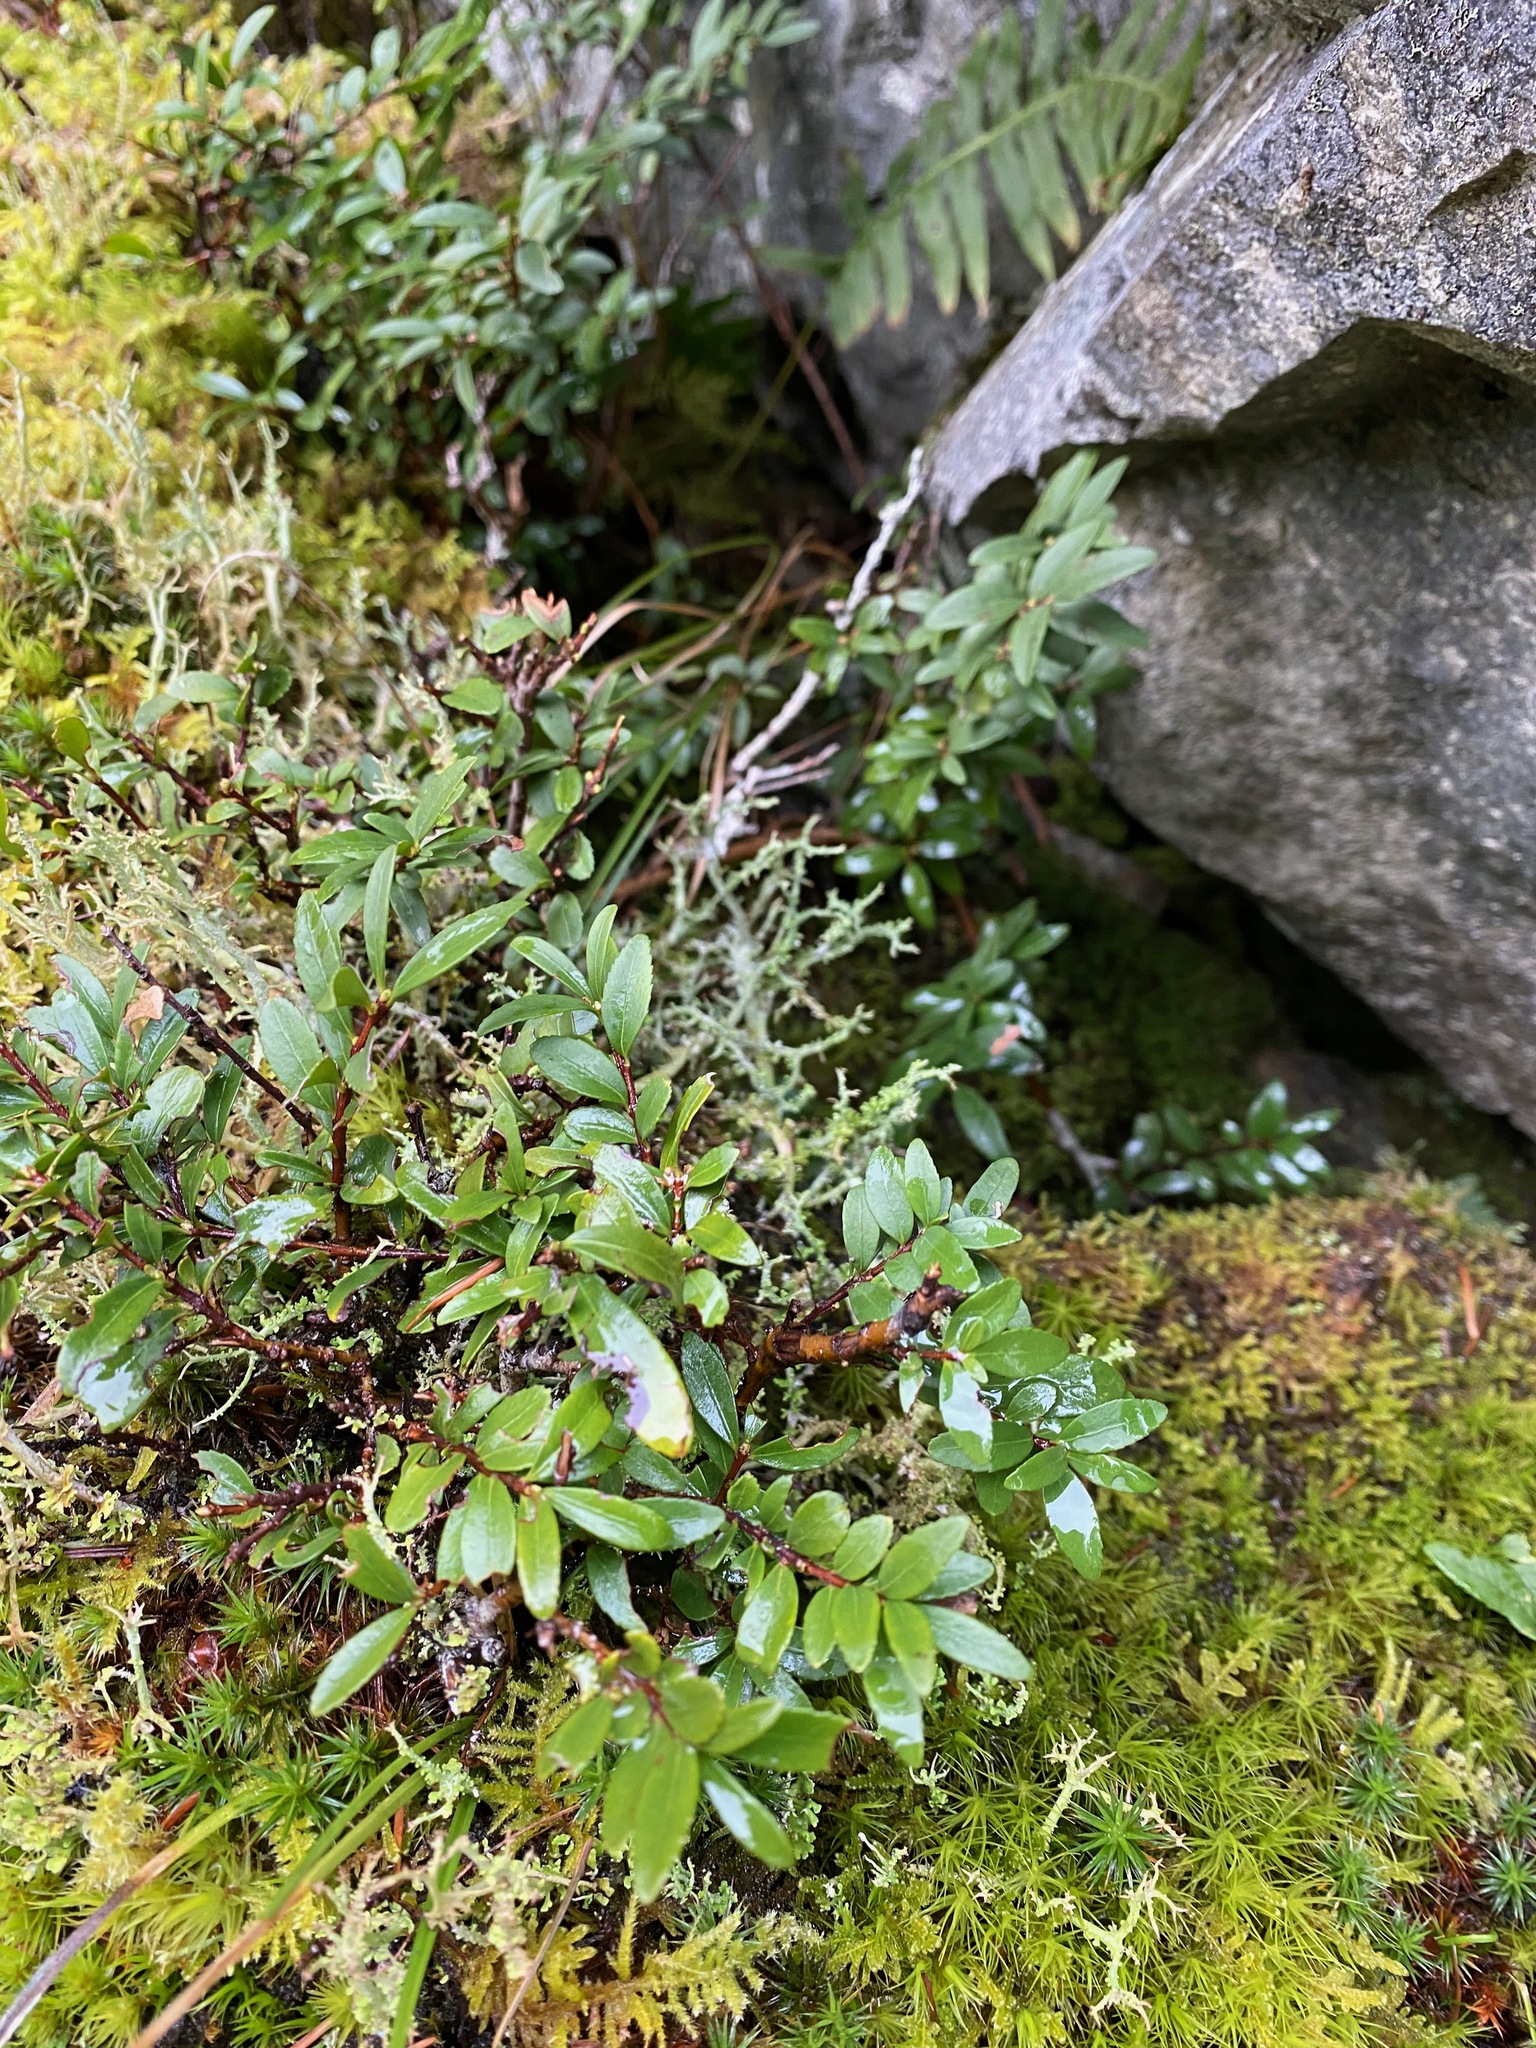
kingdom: Plantae
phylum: Tracheophyta
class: Magnoliopsida
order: Celastrales
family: Celastraceae
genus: Paxistima
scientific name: Paxistima myrsinites
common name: Mountain-lover
